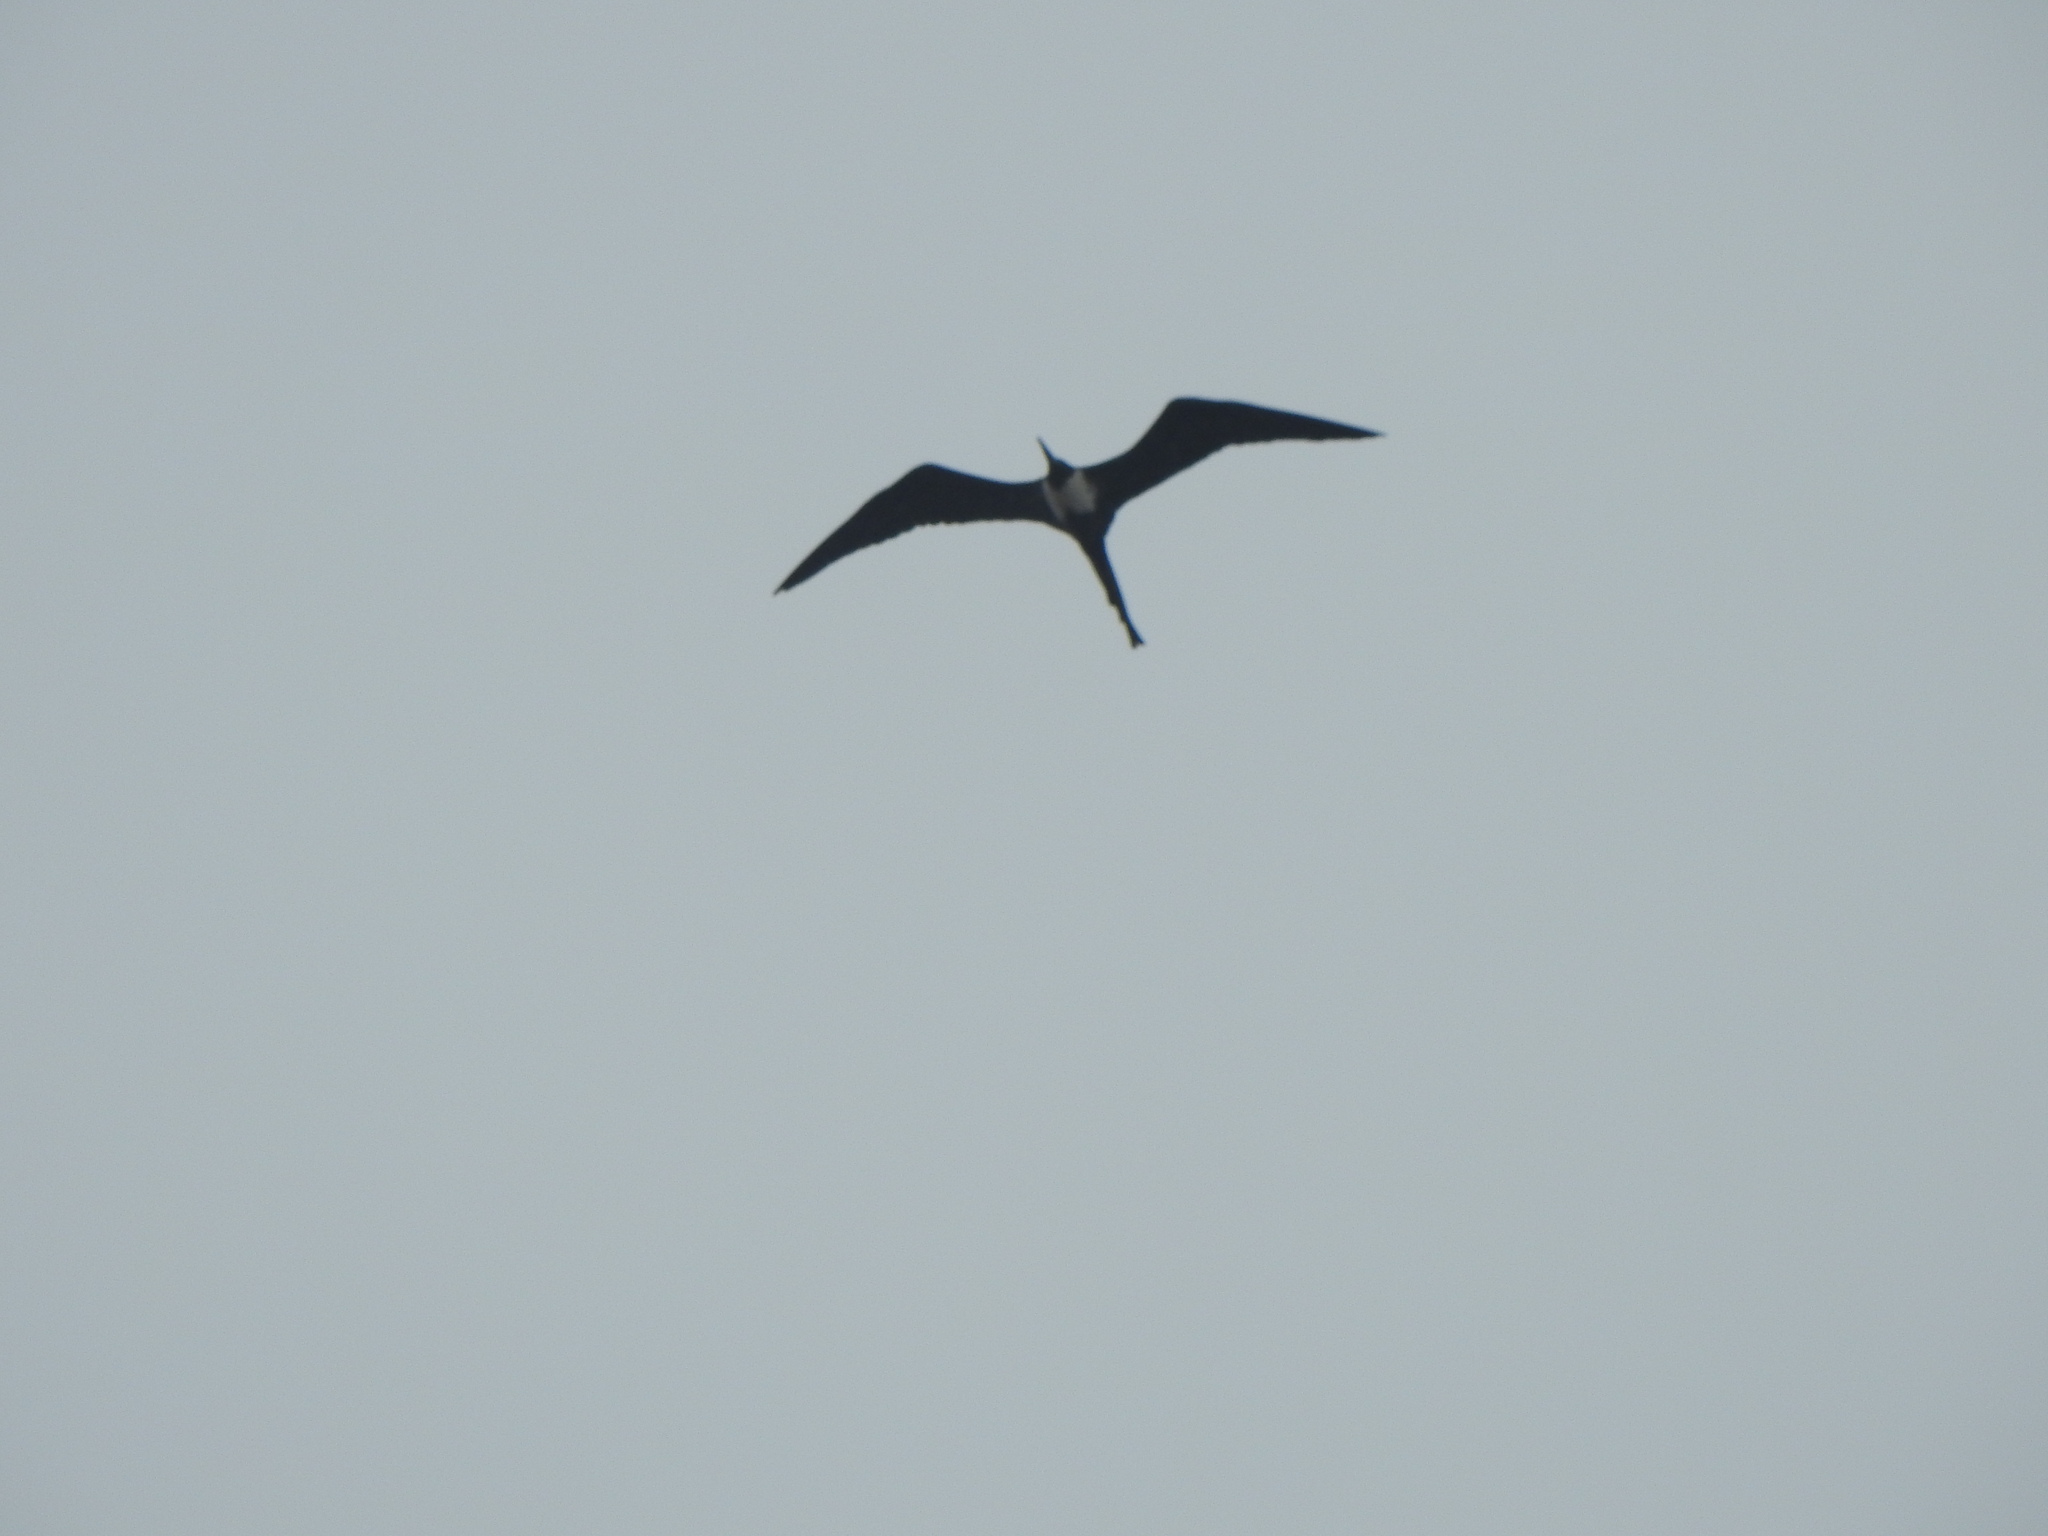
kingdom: Animalia
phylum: Chordata
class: Aves
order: Suliformes
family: Fregatidae
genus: Fregata
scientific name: Fregata magnificens
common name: Magnificent frigatebird
